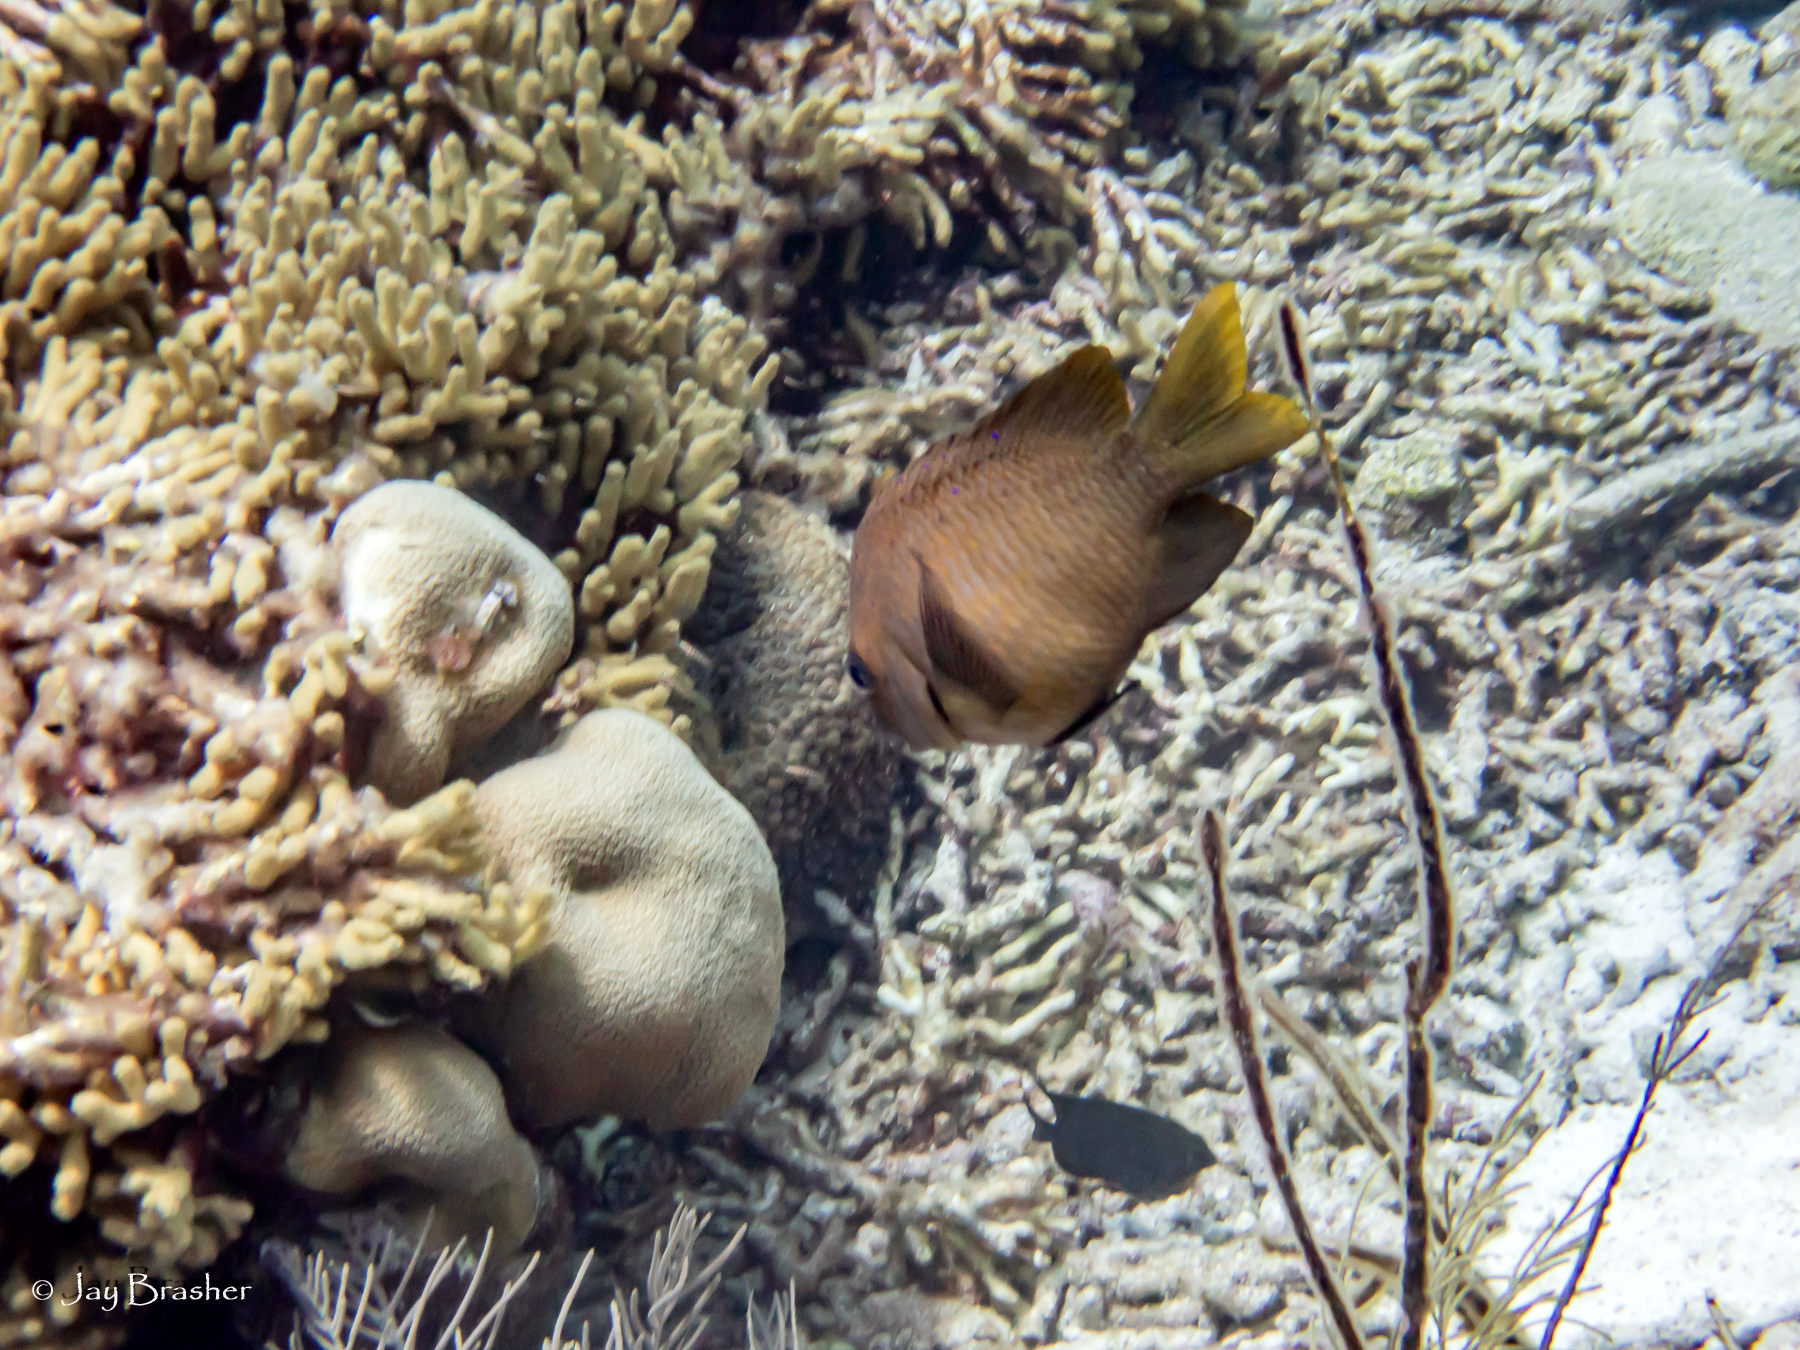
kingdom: Animalia
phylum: Chordata
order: Perciformes
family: Pomacentridae
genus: Microspathodon
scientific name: Microspathodon chrysurus
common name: Yellowtail damselfish
